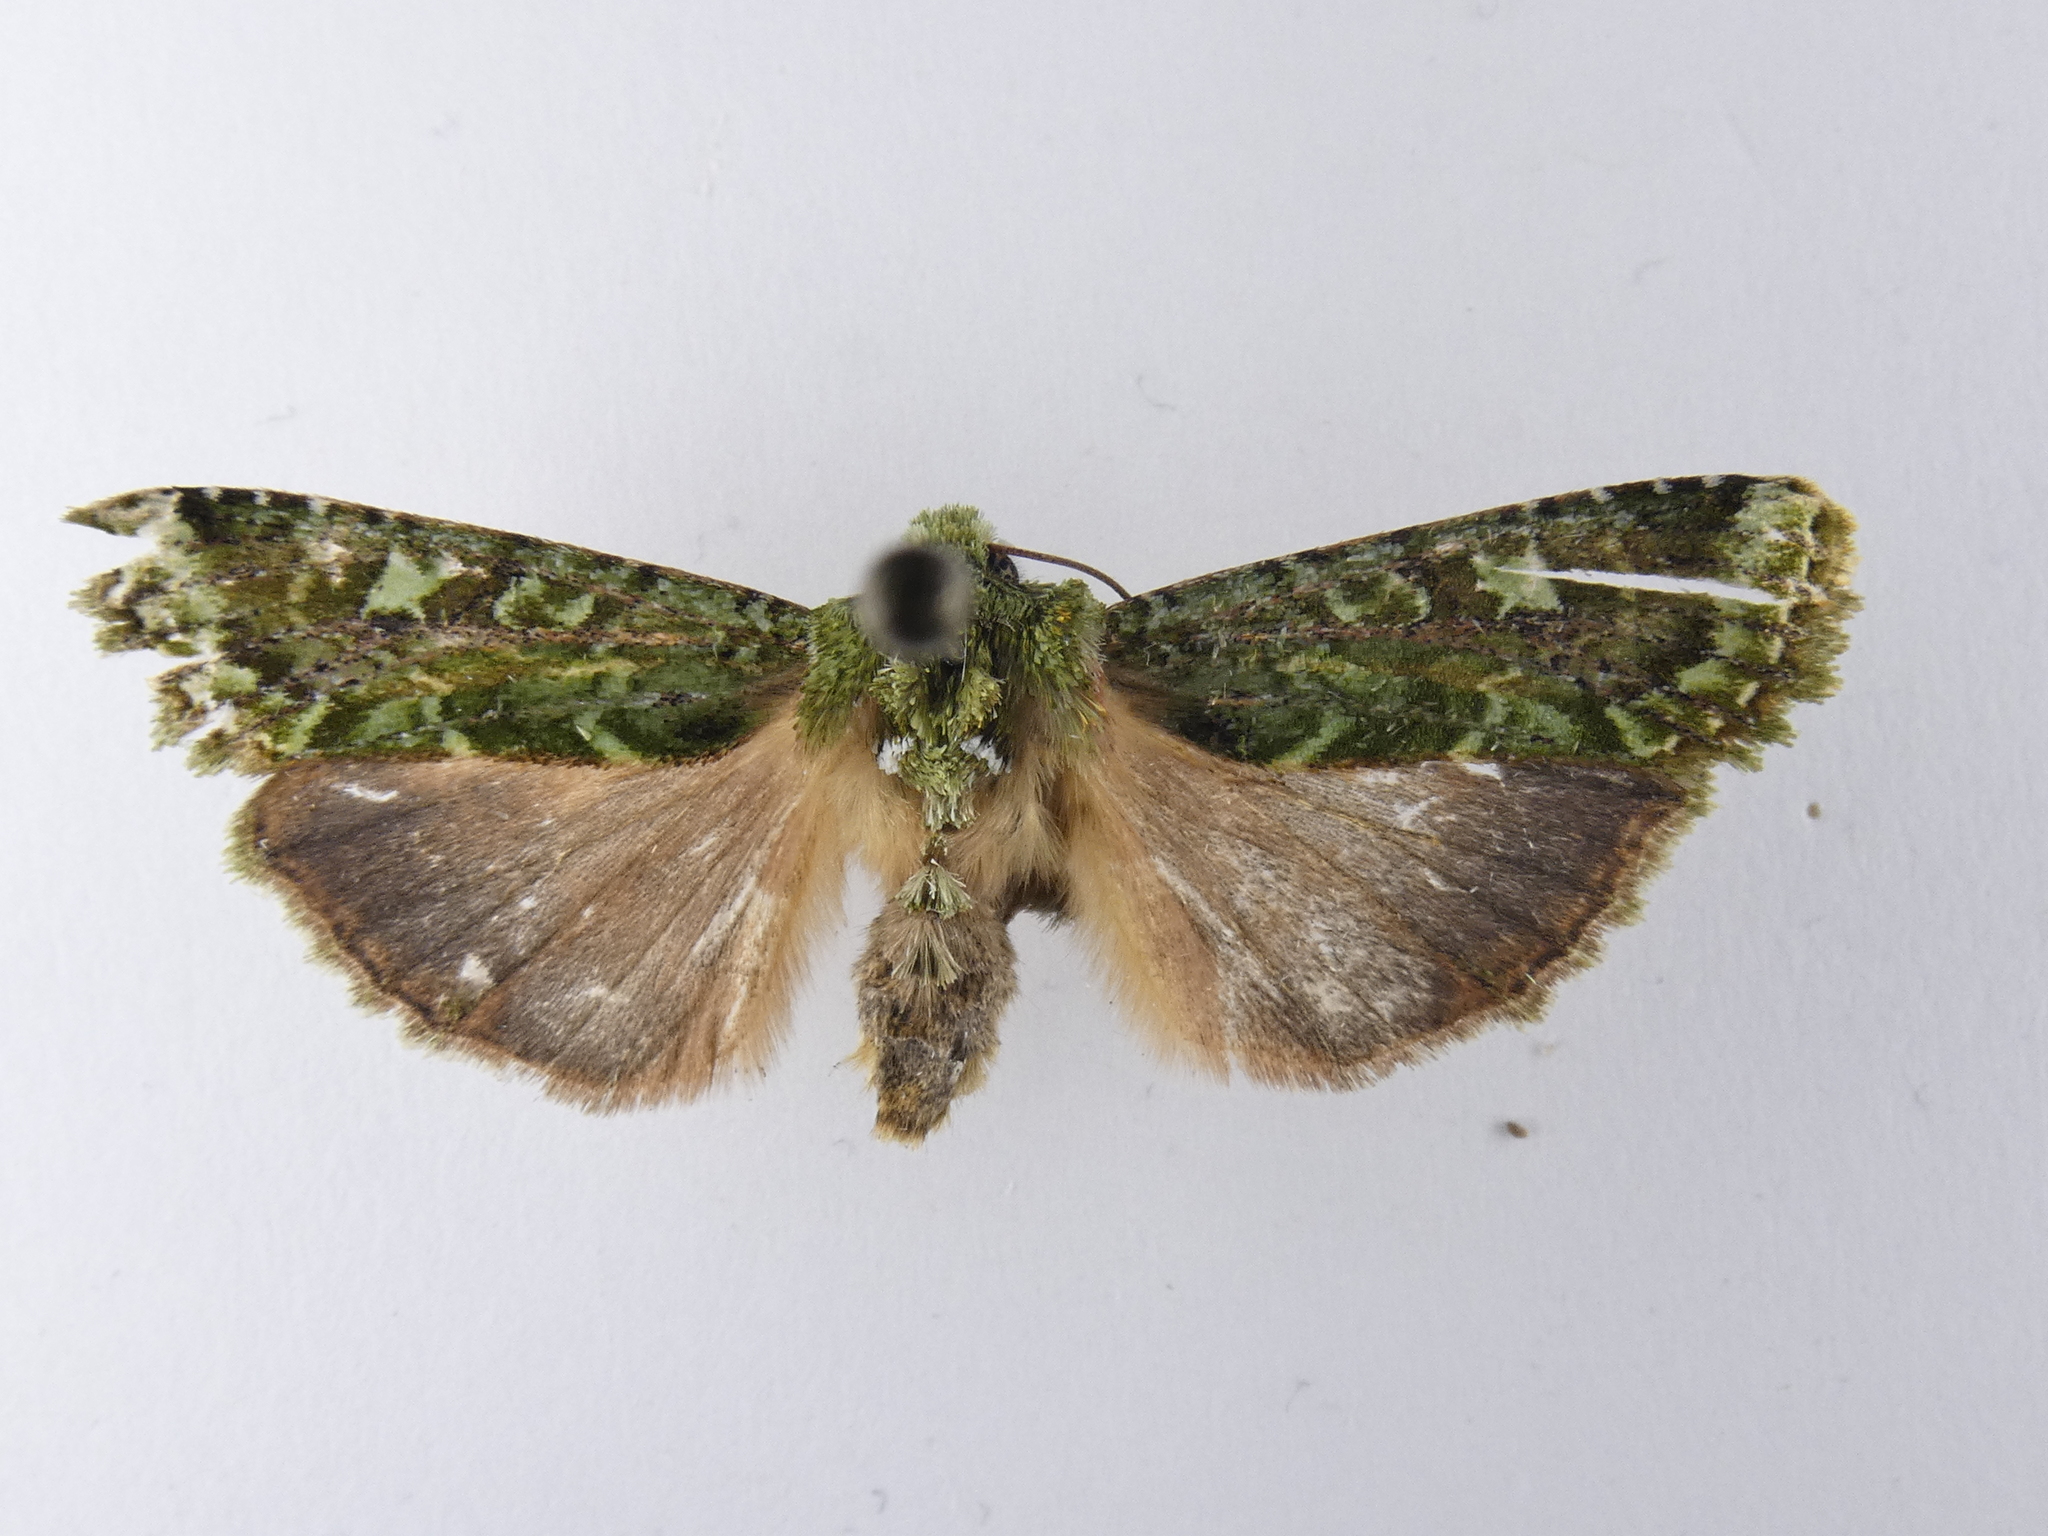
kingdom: Animalia
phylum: Arthropoda
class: Insecta
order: Lepidoptera
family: Noctuidae
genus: Feredayia
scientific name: Feredayia grammosa
